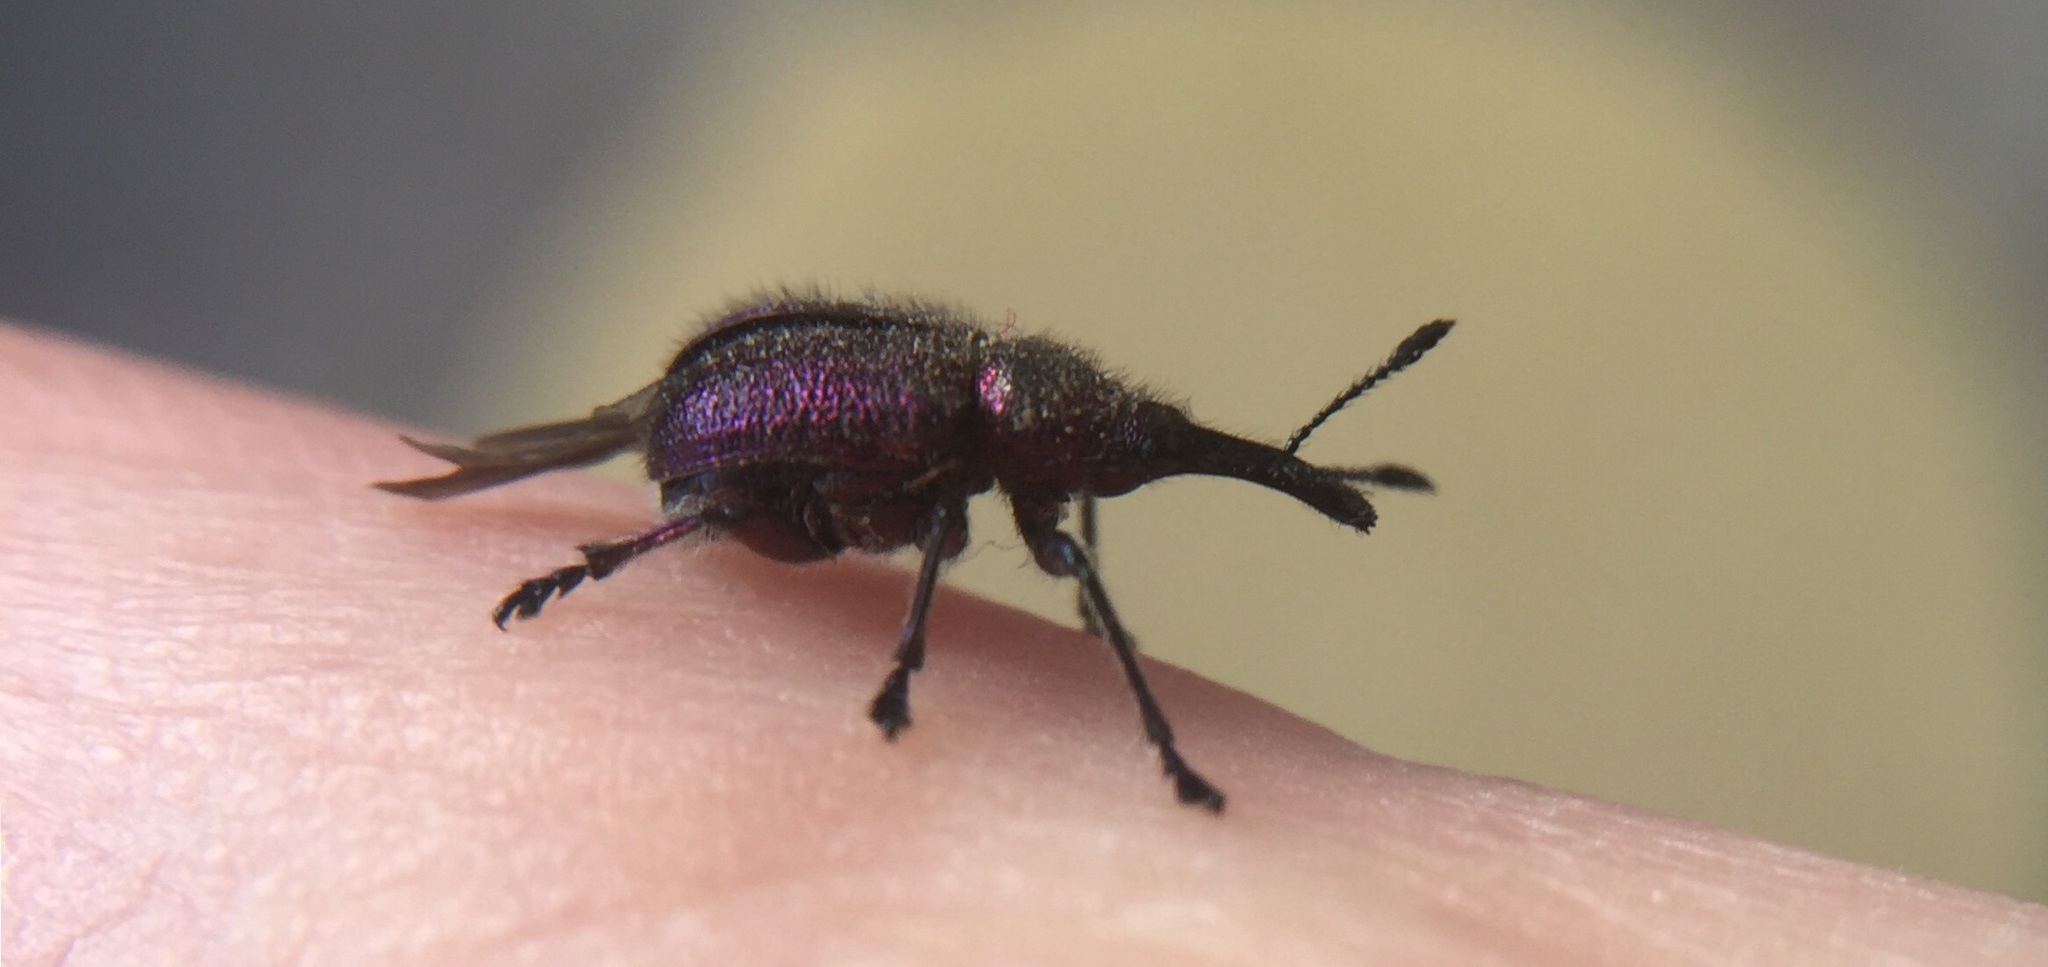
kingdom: Animalia
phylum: Arthropoda
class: Insecta
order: Coleoptera
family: Attelabidae
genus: Rhynchites
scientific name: Rhynchites bacchus
